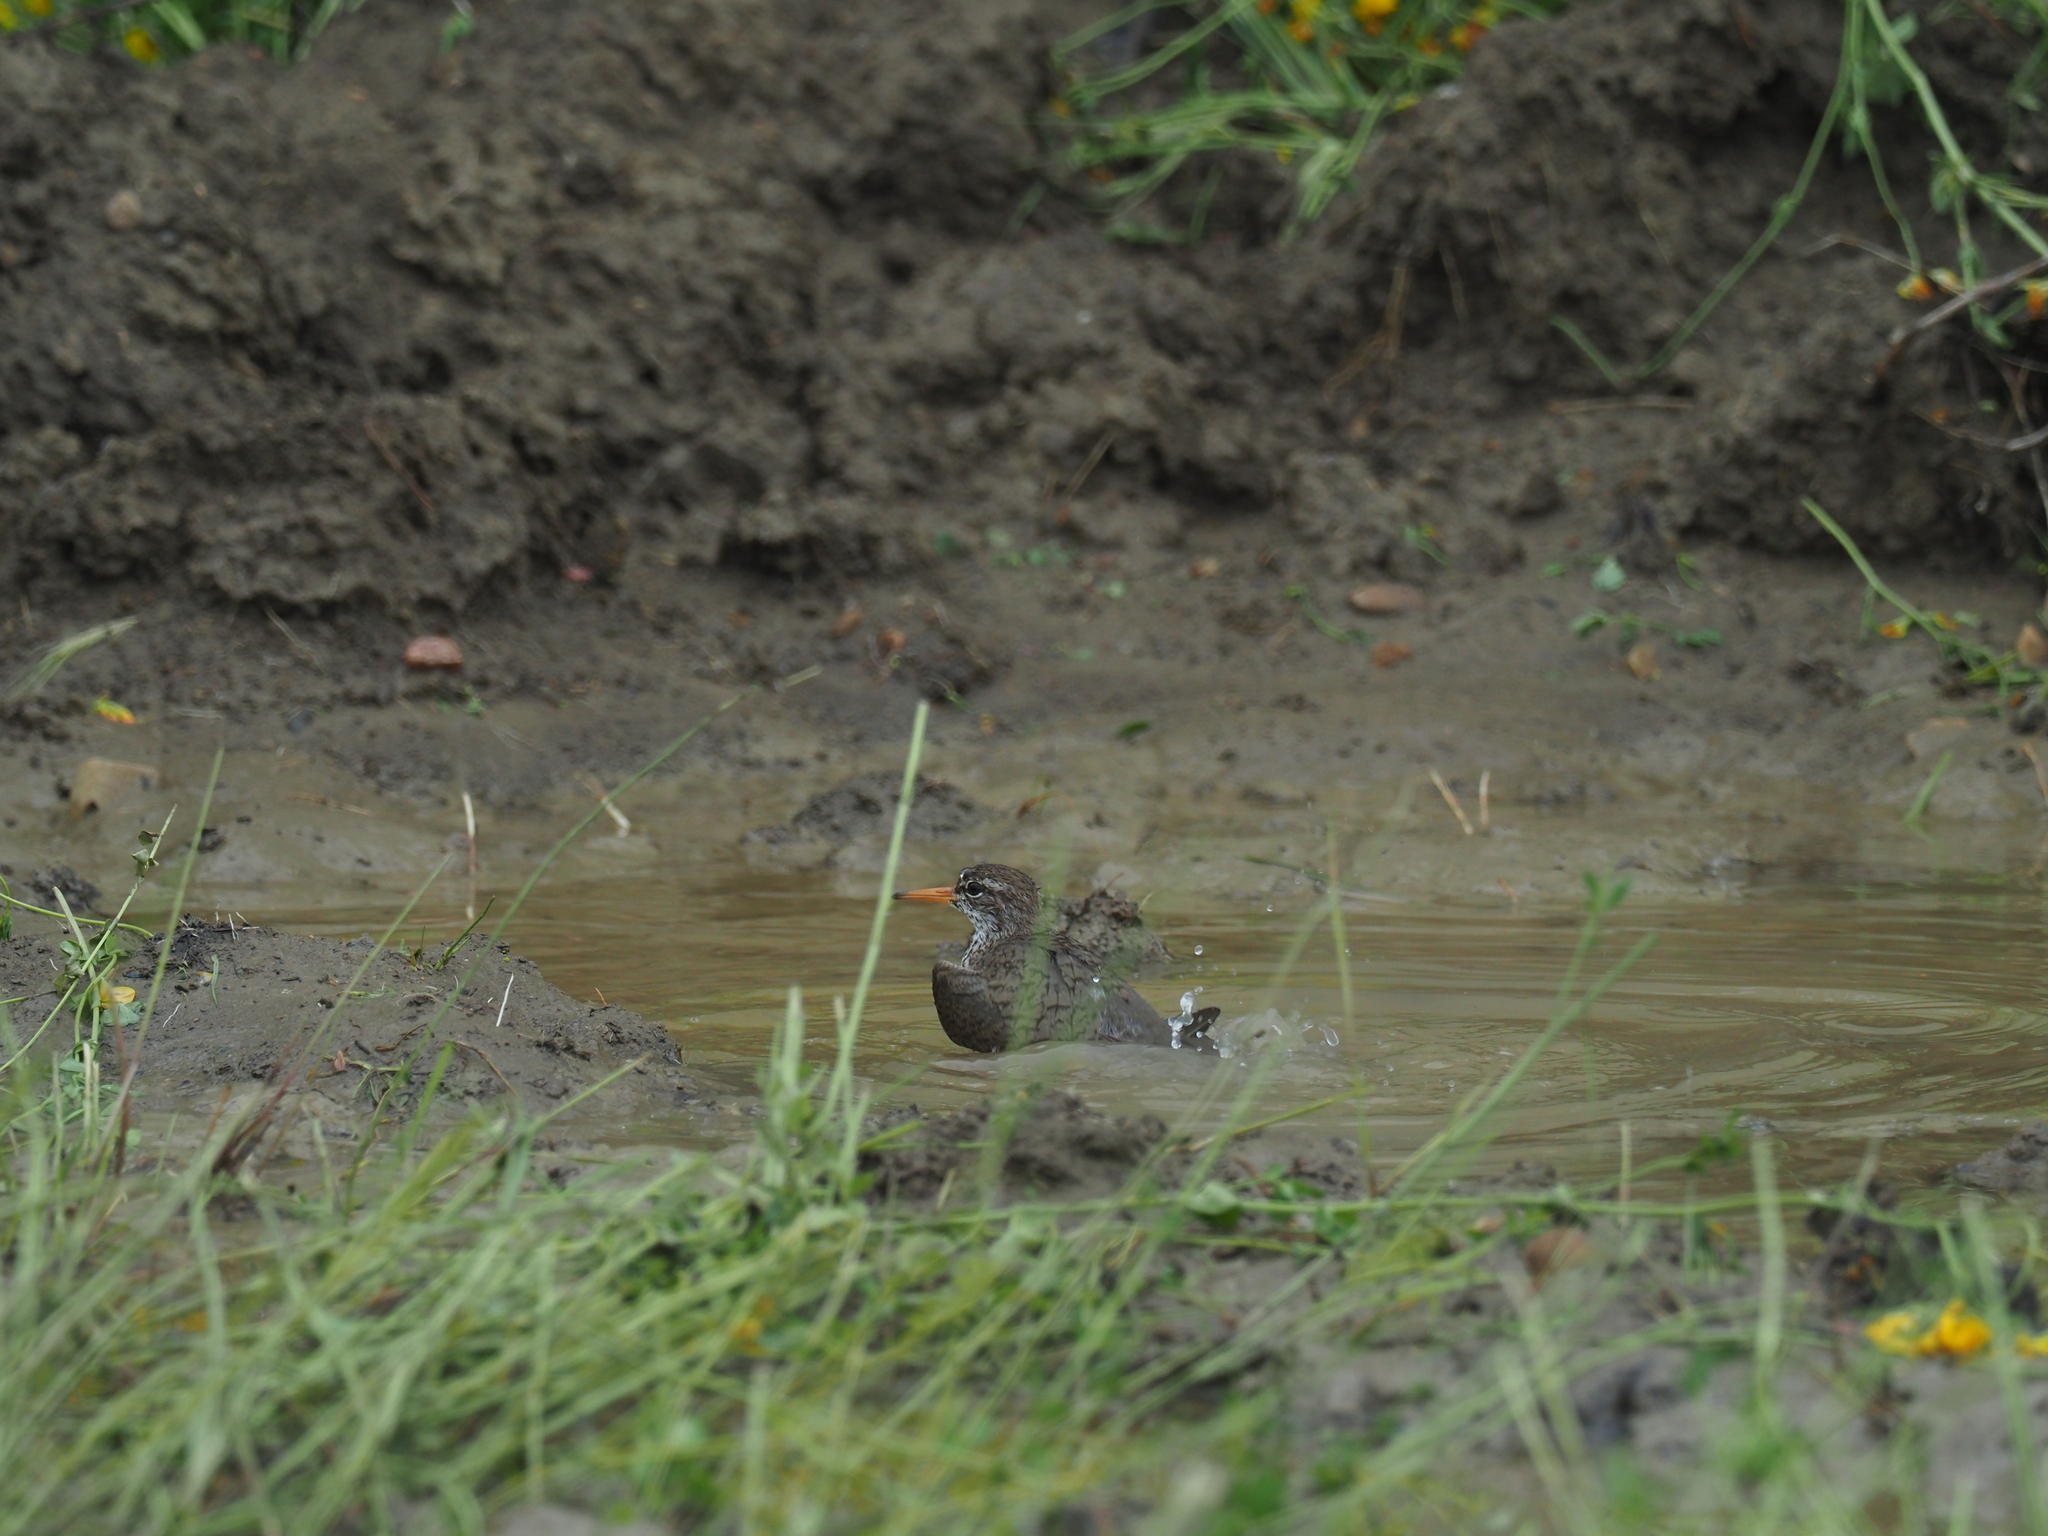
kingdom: Animalia
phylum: Chordata
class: Aves
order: Charadriiformes
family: Scolopacidae
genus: Actitis
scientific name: Actitis macularius
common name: Spotted sandpiper
